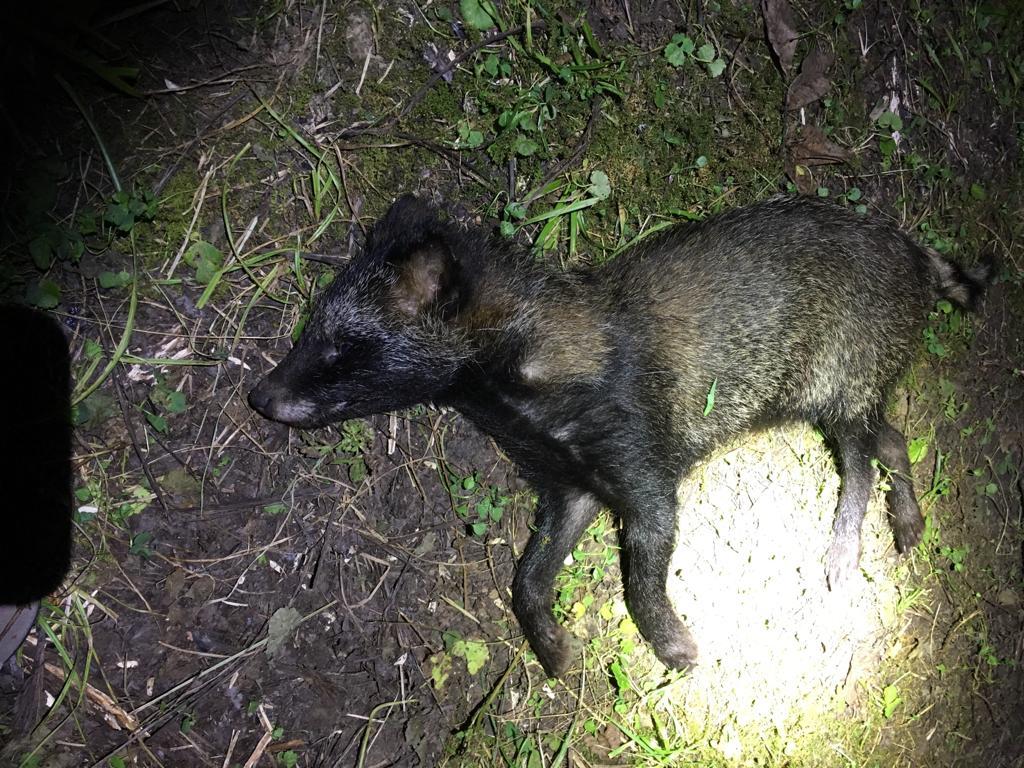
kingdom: Animalia
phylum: Chordata
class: Mammalia
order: Carnivora
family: Canidae
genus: Nyctereutes
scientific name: Nyctereutes procyonoides
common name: Raccoon dog
